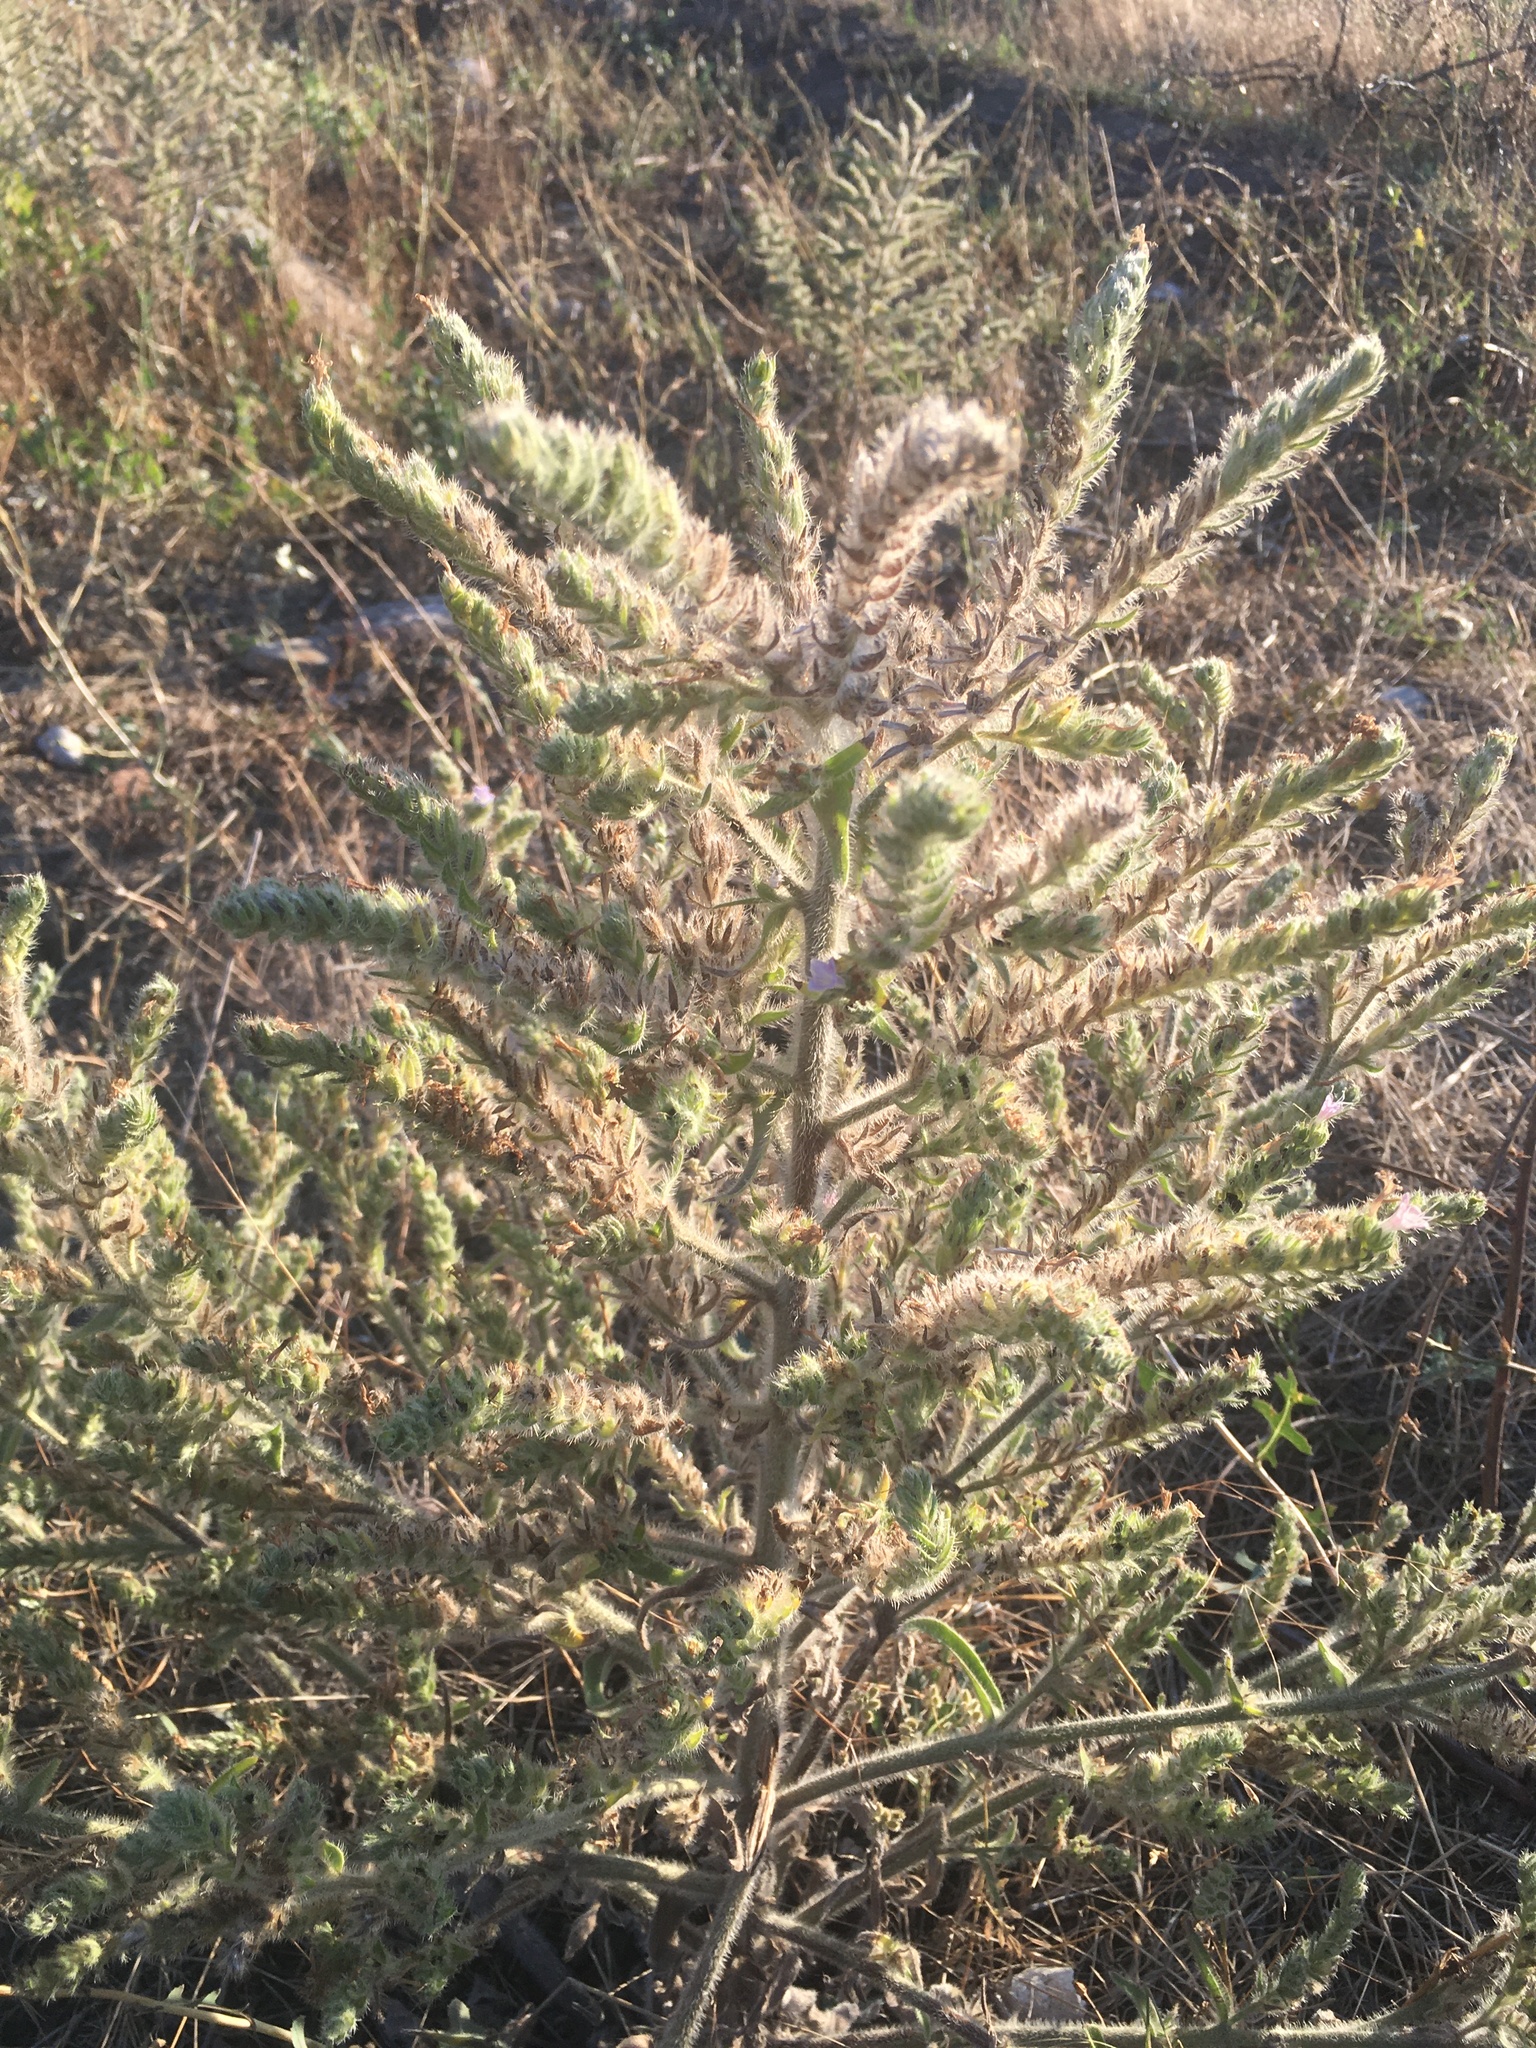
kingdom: Plantae
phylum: Tracheophyta
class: Magnoliopsida
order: Boraginales
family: Boraginaceae
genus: Echium
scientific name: Echium vulgare
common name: Common viper's bugloss
